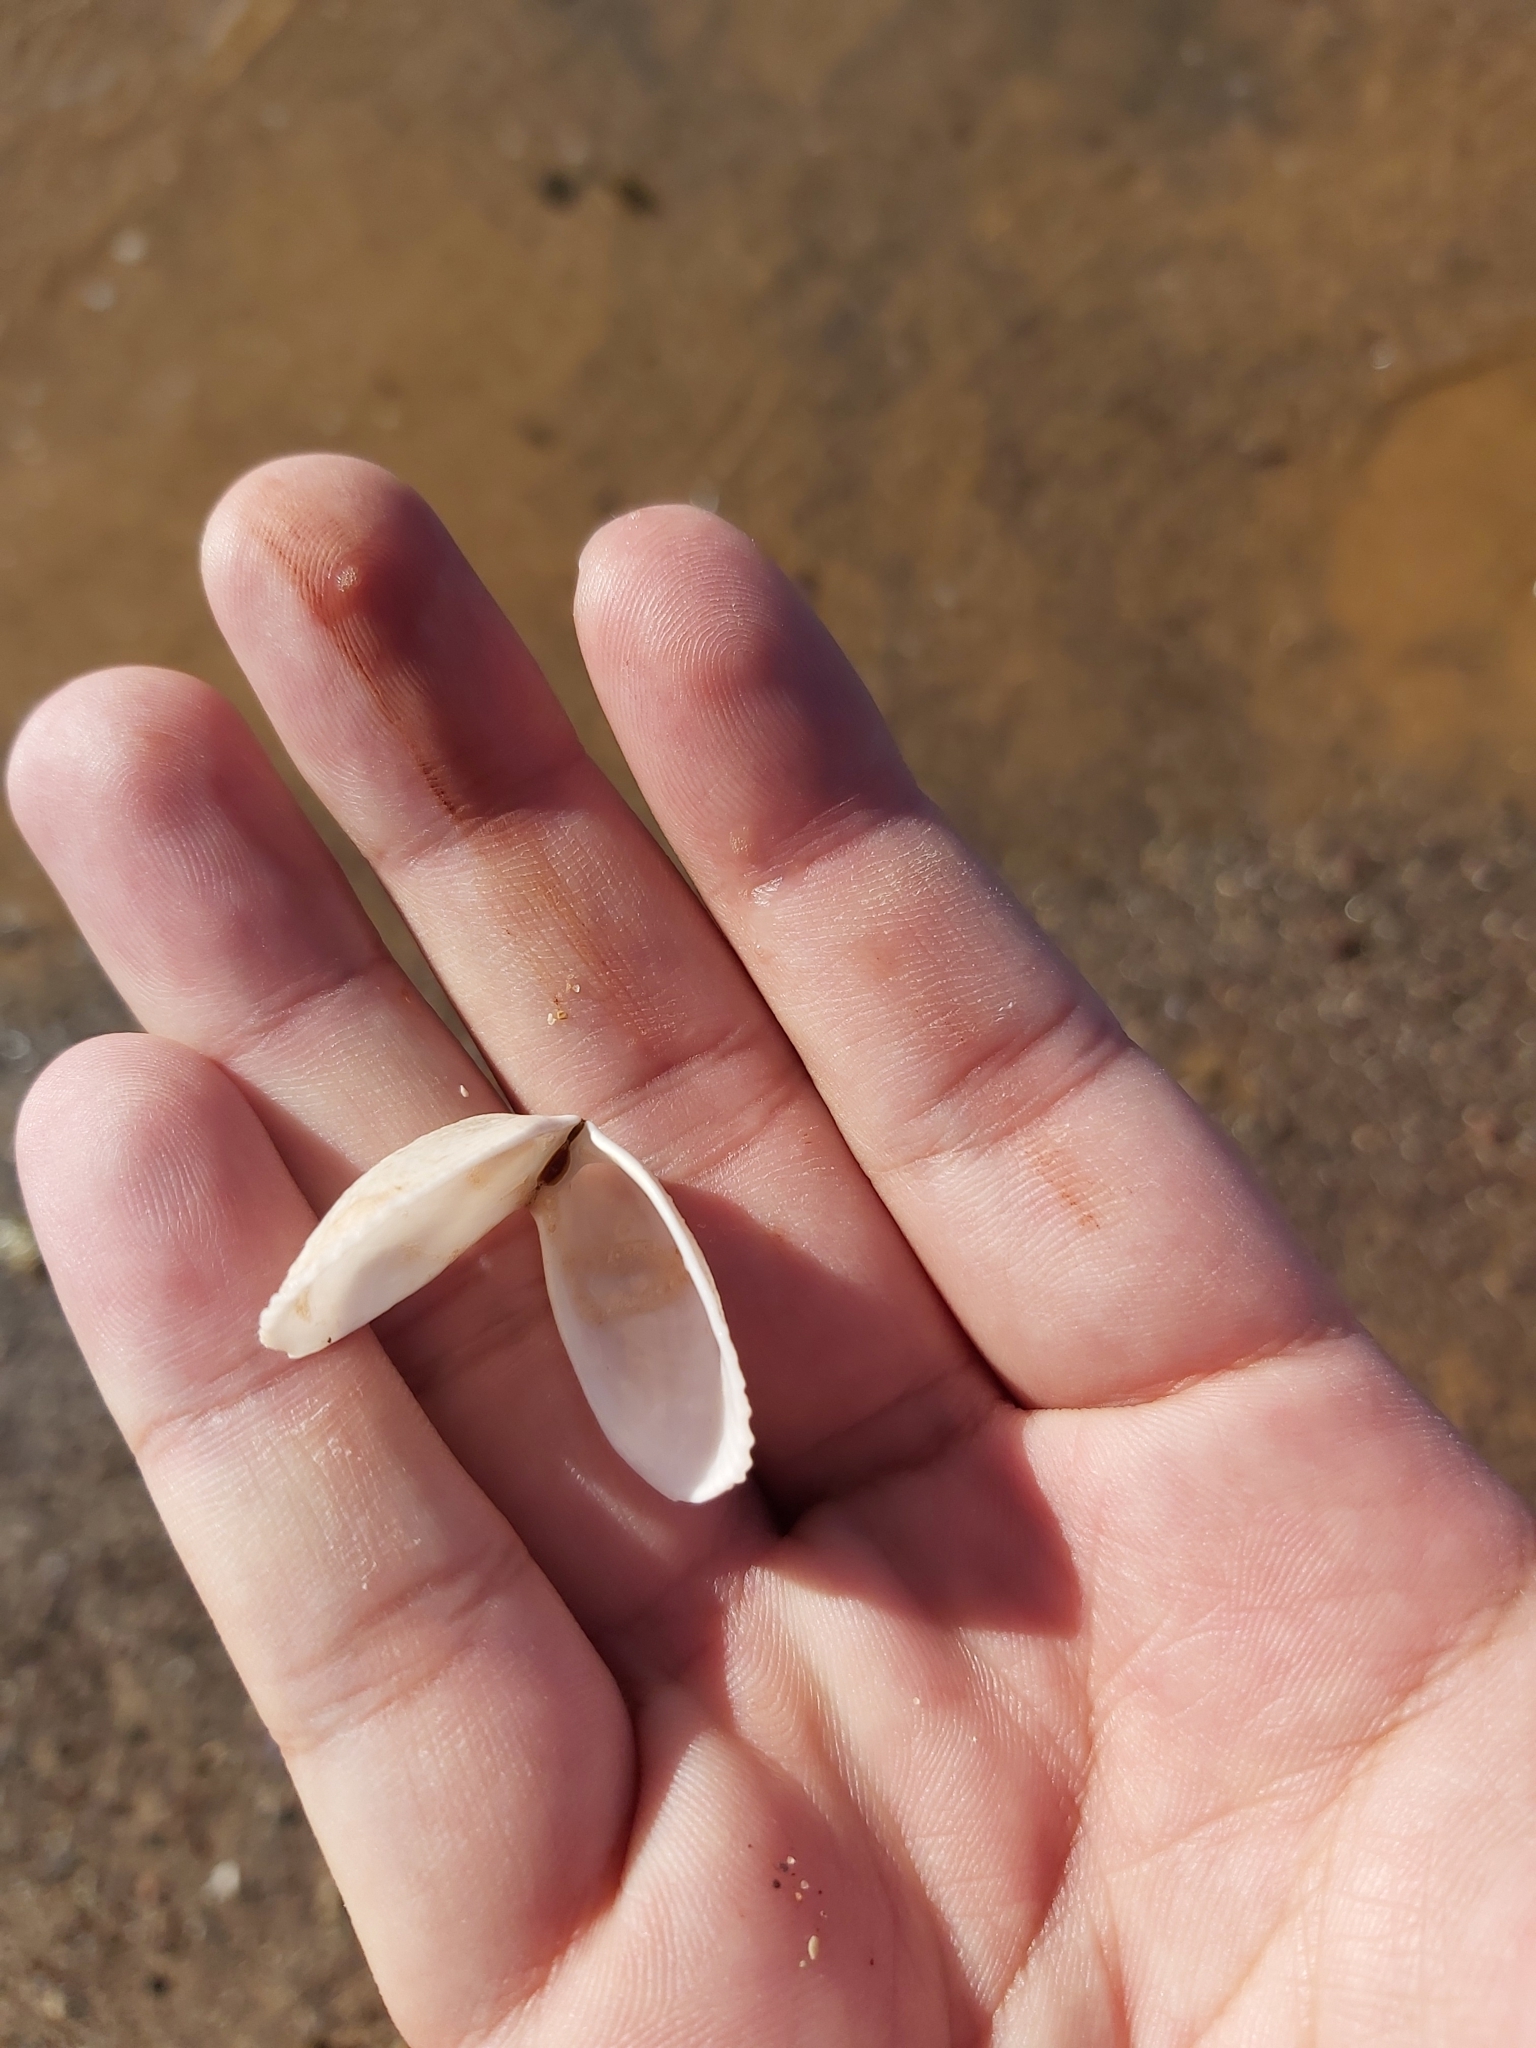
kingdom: Animalia
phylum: Mollusca
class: Bivalvia
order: Limida
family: Limidae
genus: Limatula
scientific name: Limatula strangei
